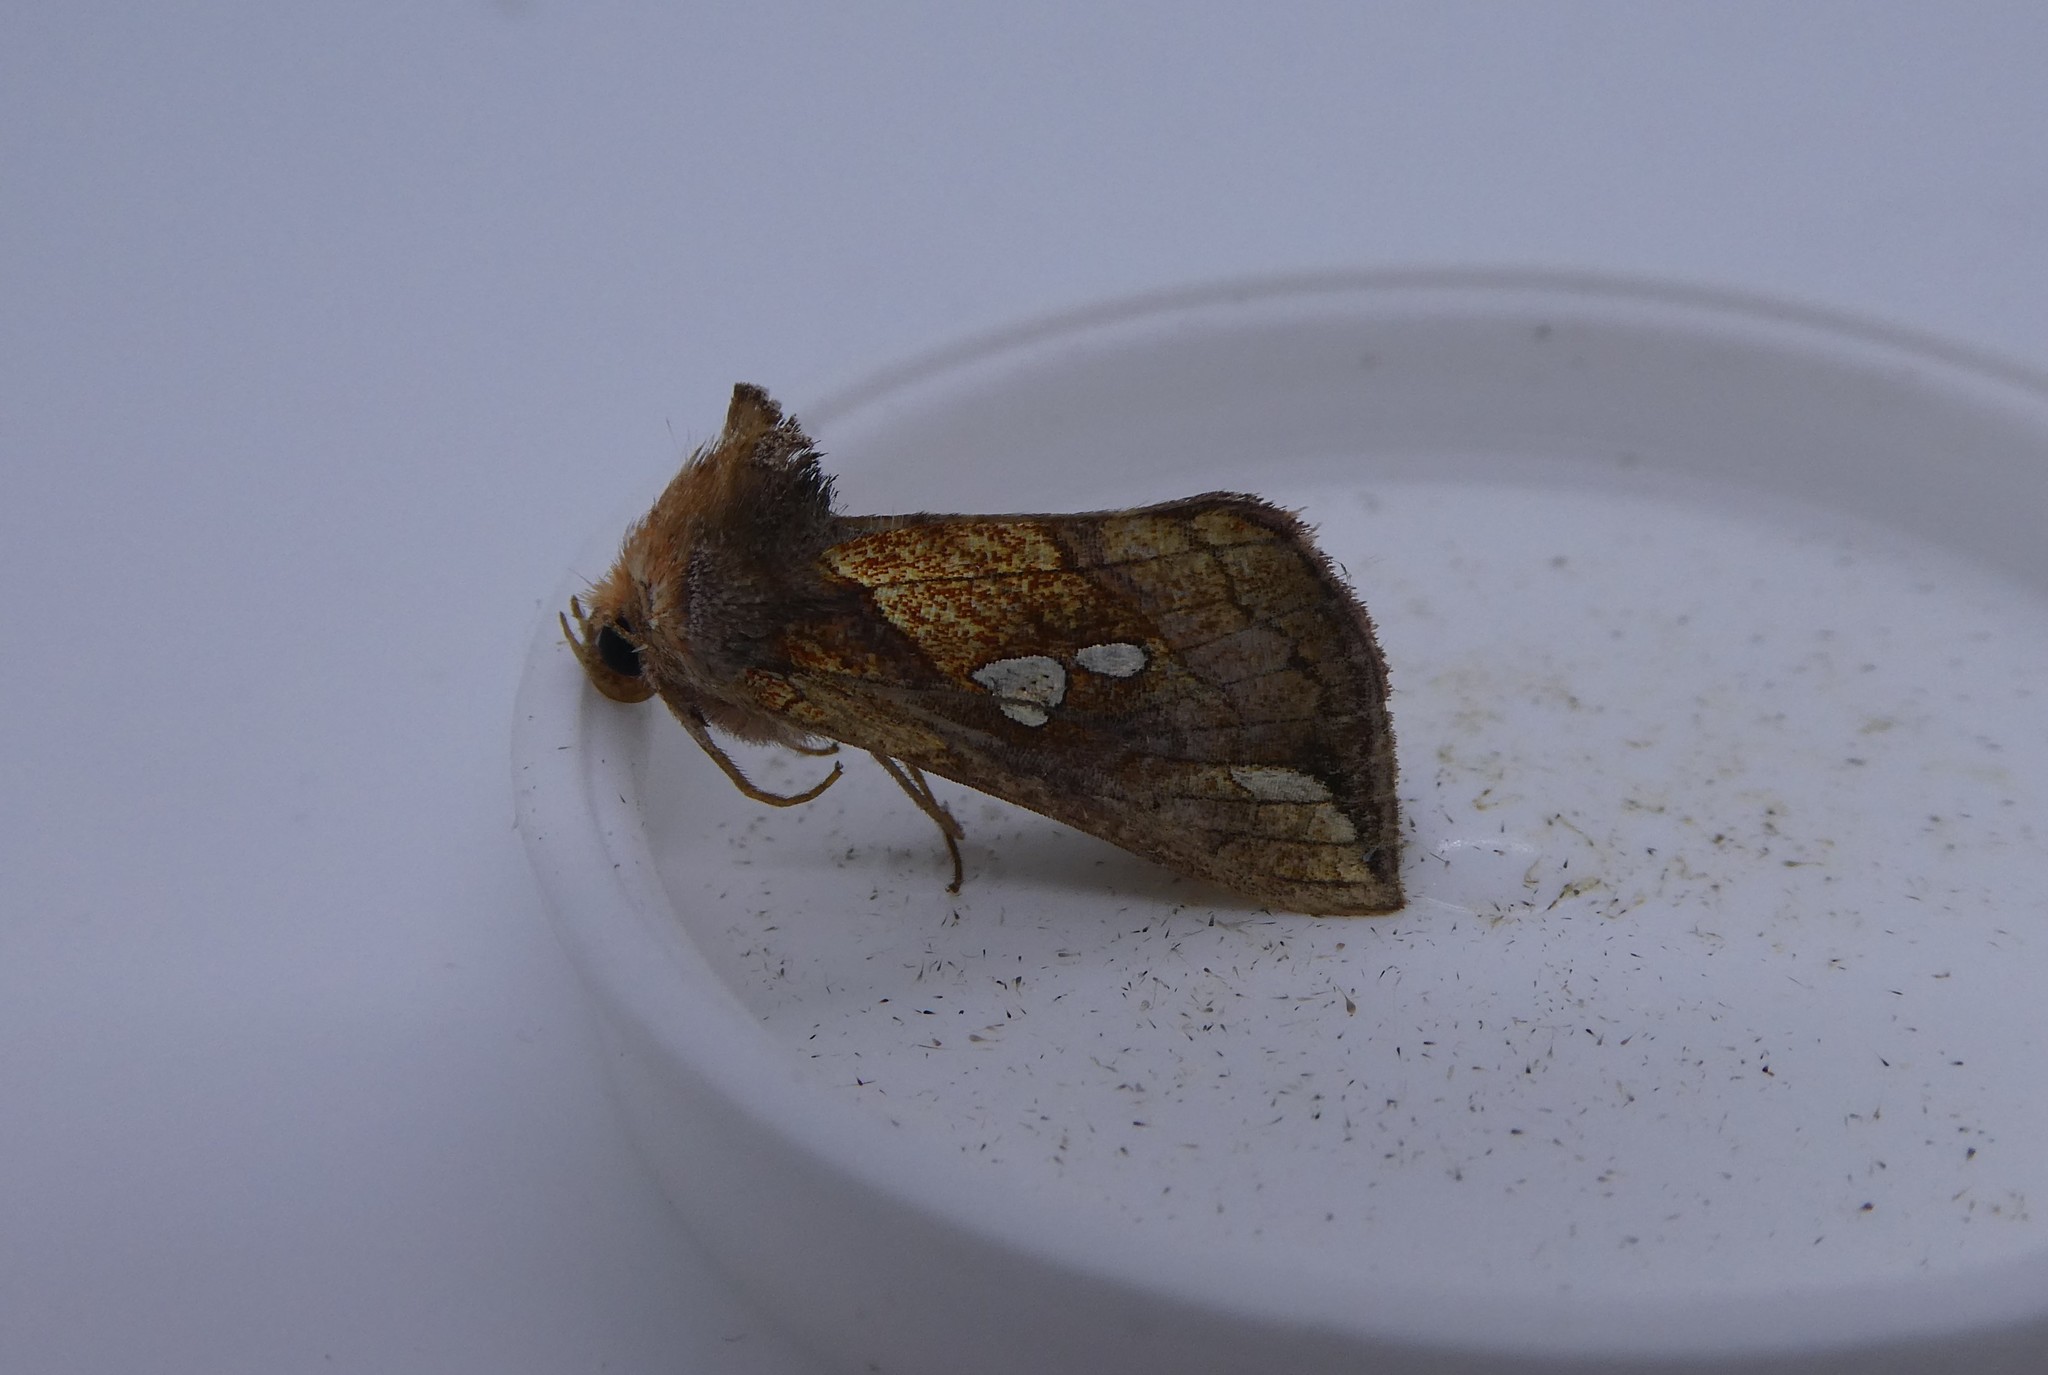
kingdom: Animalia
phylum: Arthropoda
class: Insecta
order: Lepidoptera
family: Noctuidae
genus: Plusia
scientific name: Plusia putnami
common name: Lempke's gold spot
